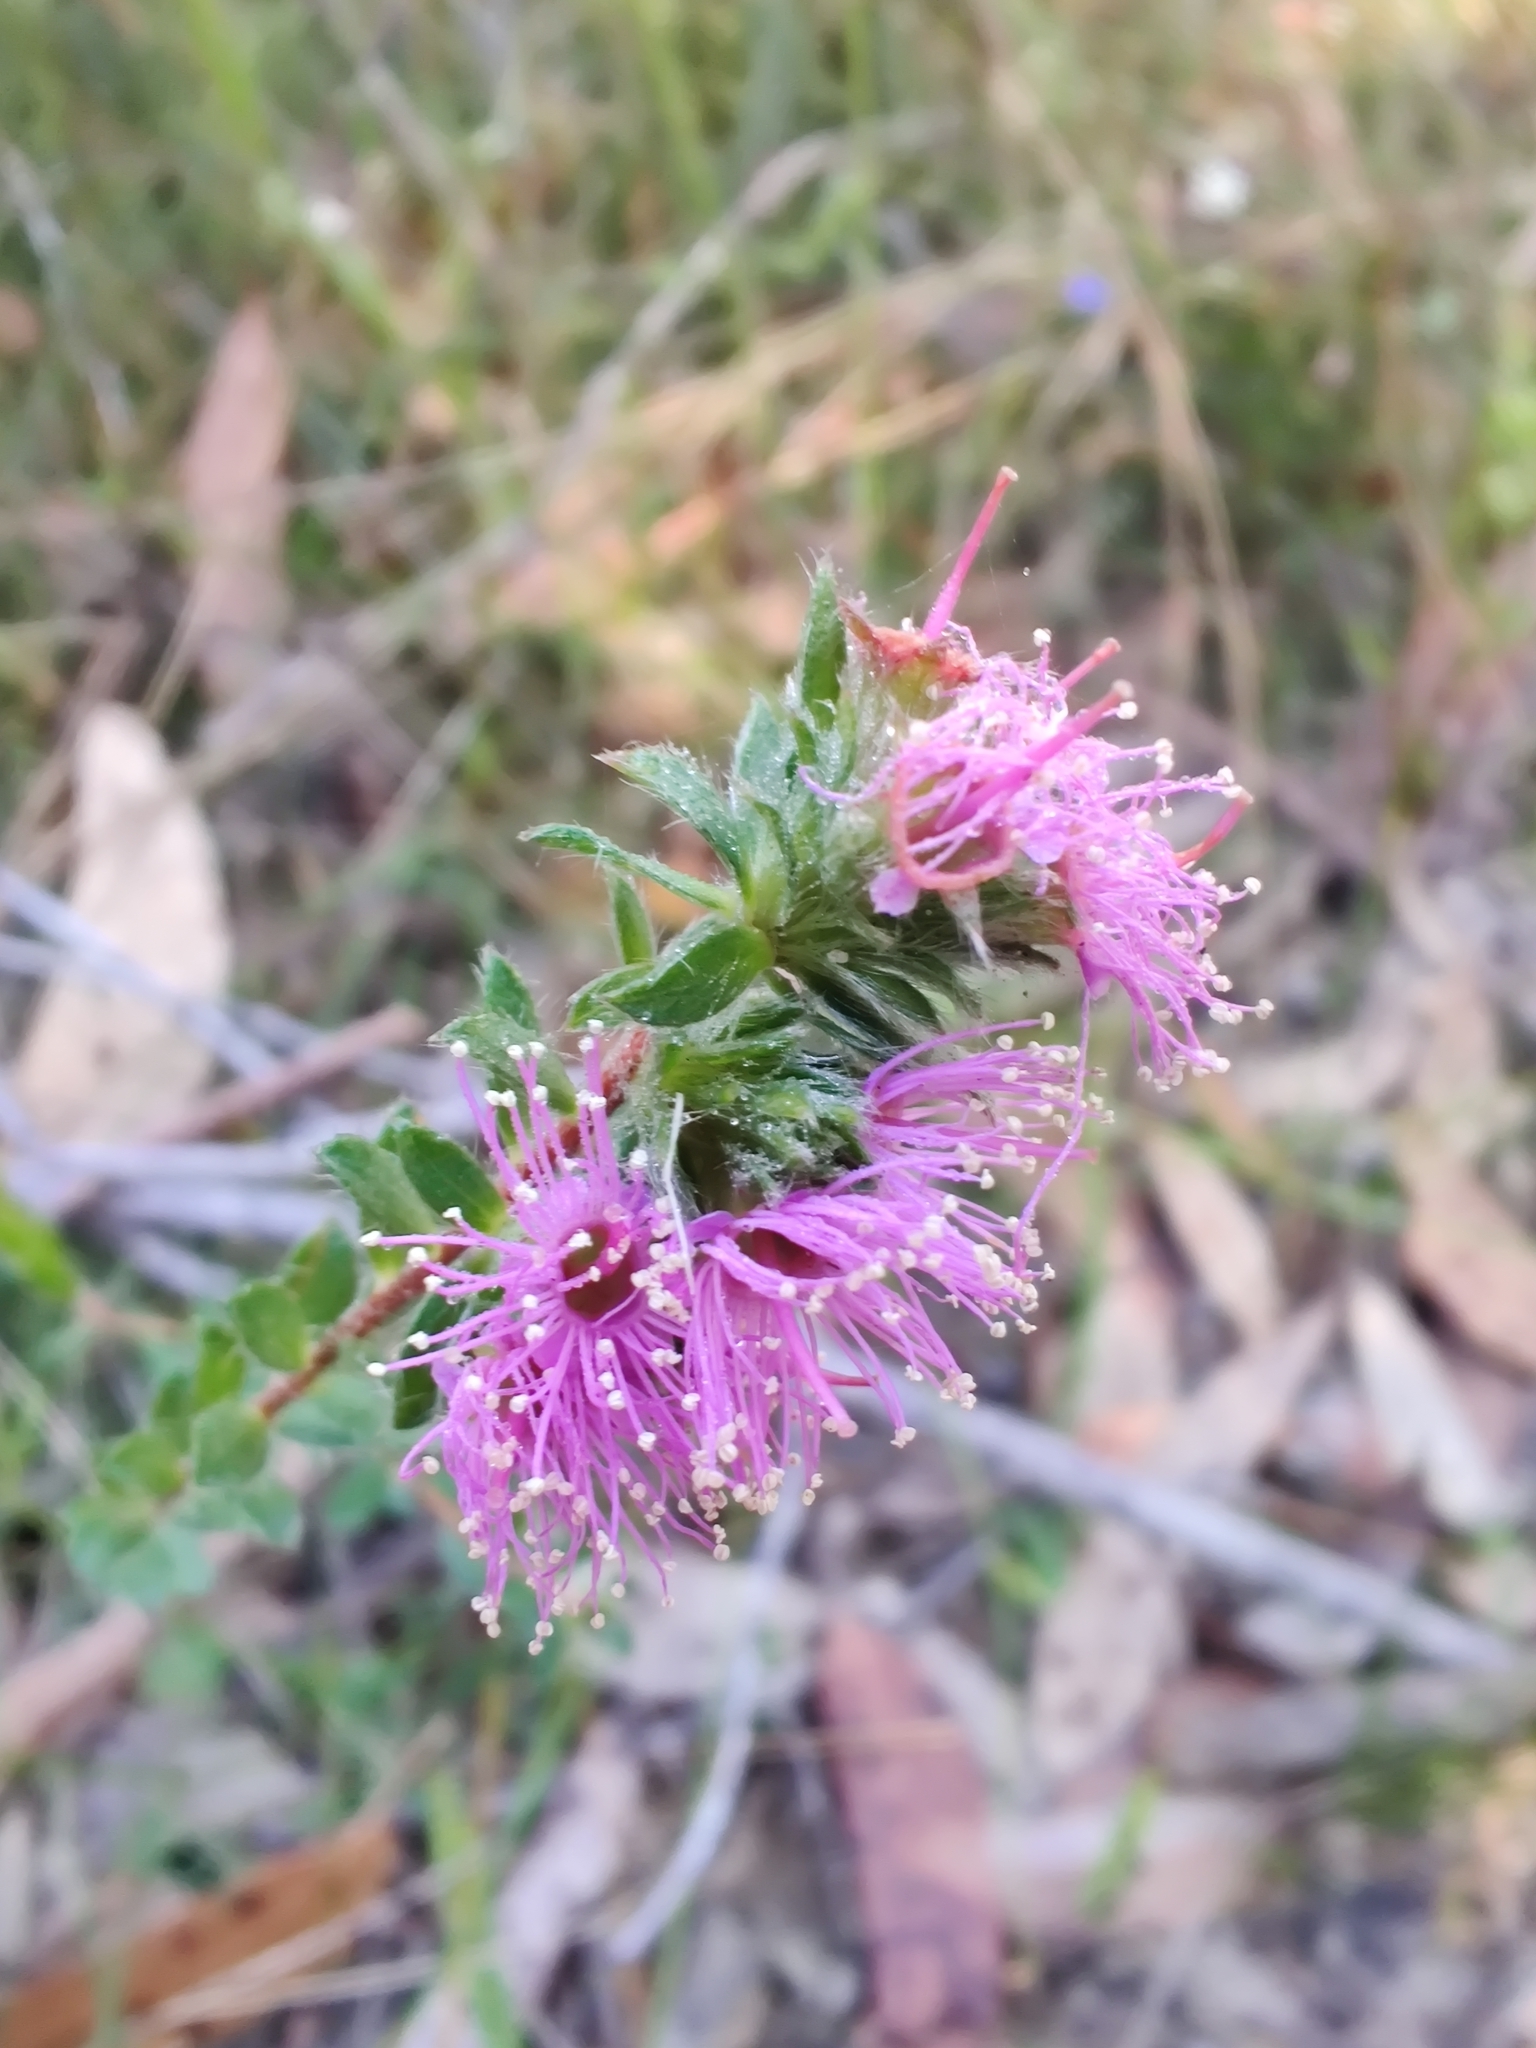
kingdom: Plantae
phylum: Tracheophyta
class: Magnoliopsida
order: Myrtales
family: Myrtaceae
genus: Kunzea
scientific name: Kunzea capitata
